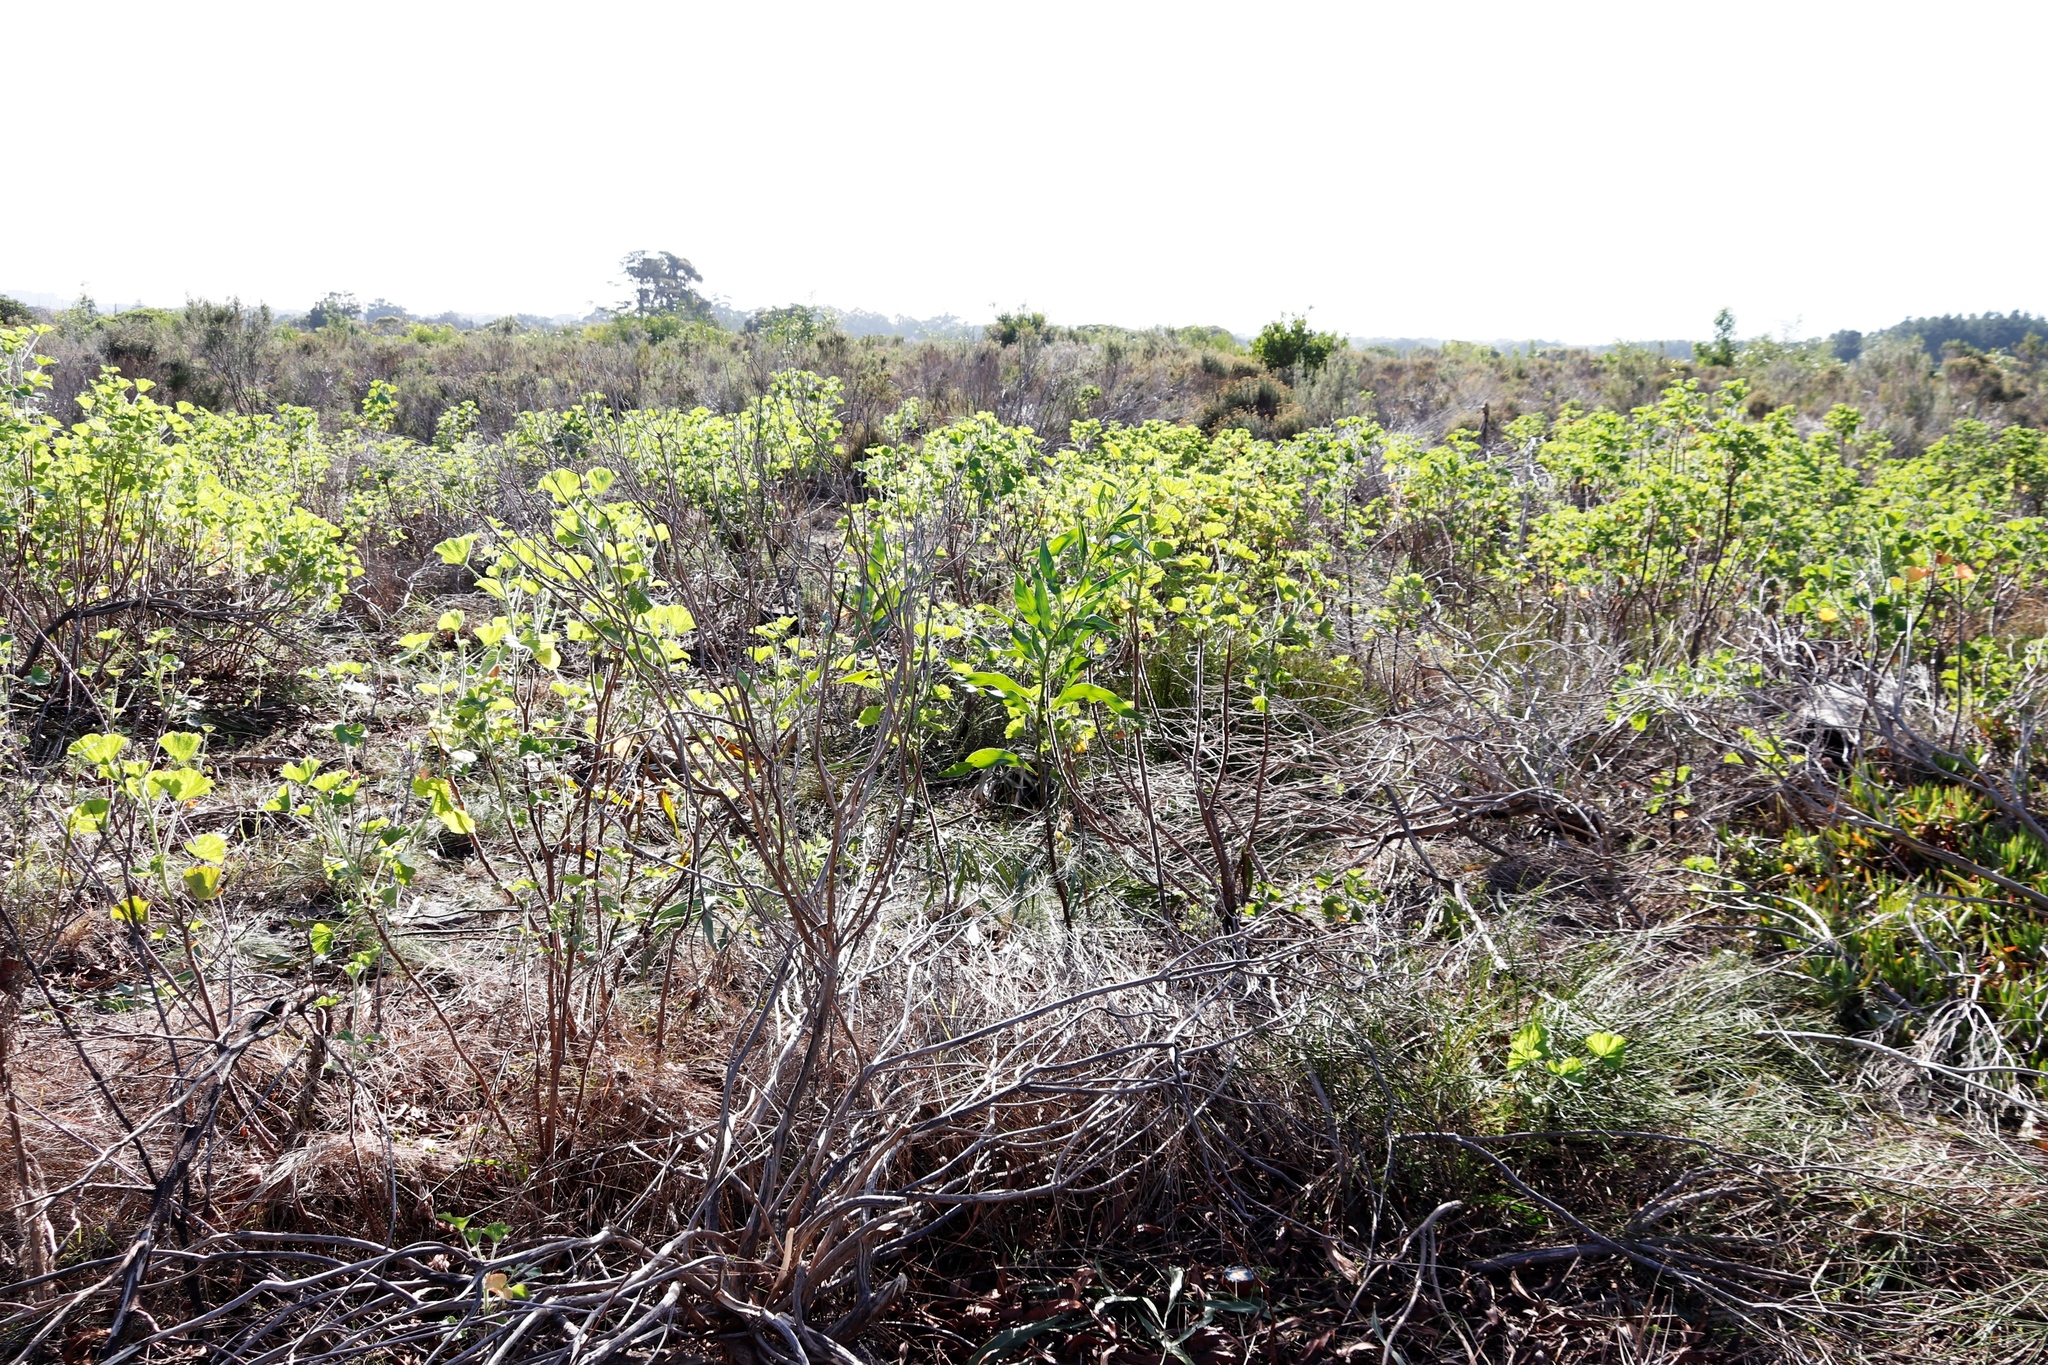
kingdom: Plantae
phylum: Tracheophyta
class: Magnoliopsida
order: Geraniales
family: Geraniaceae
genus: Pelargonium
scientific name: Pelargonium cucullatum
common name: Tree pelargonium
